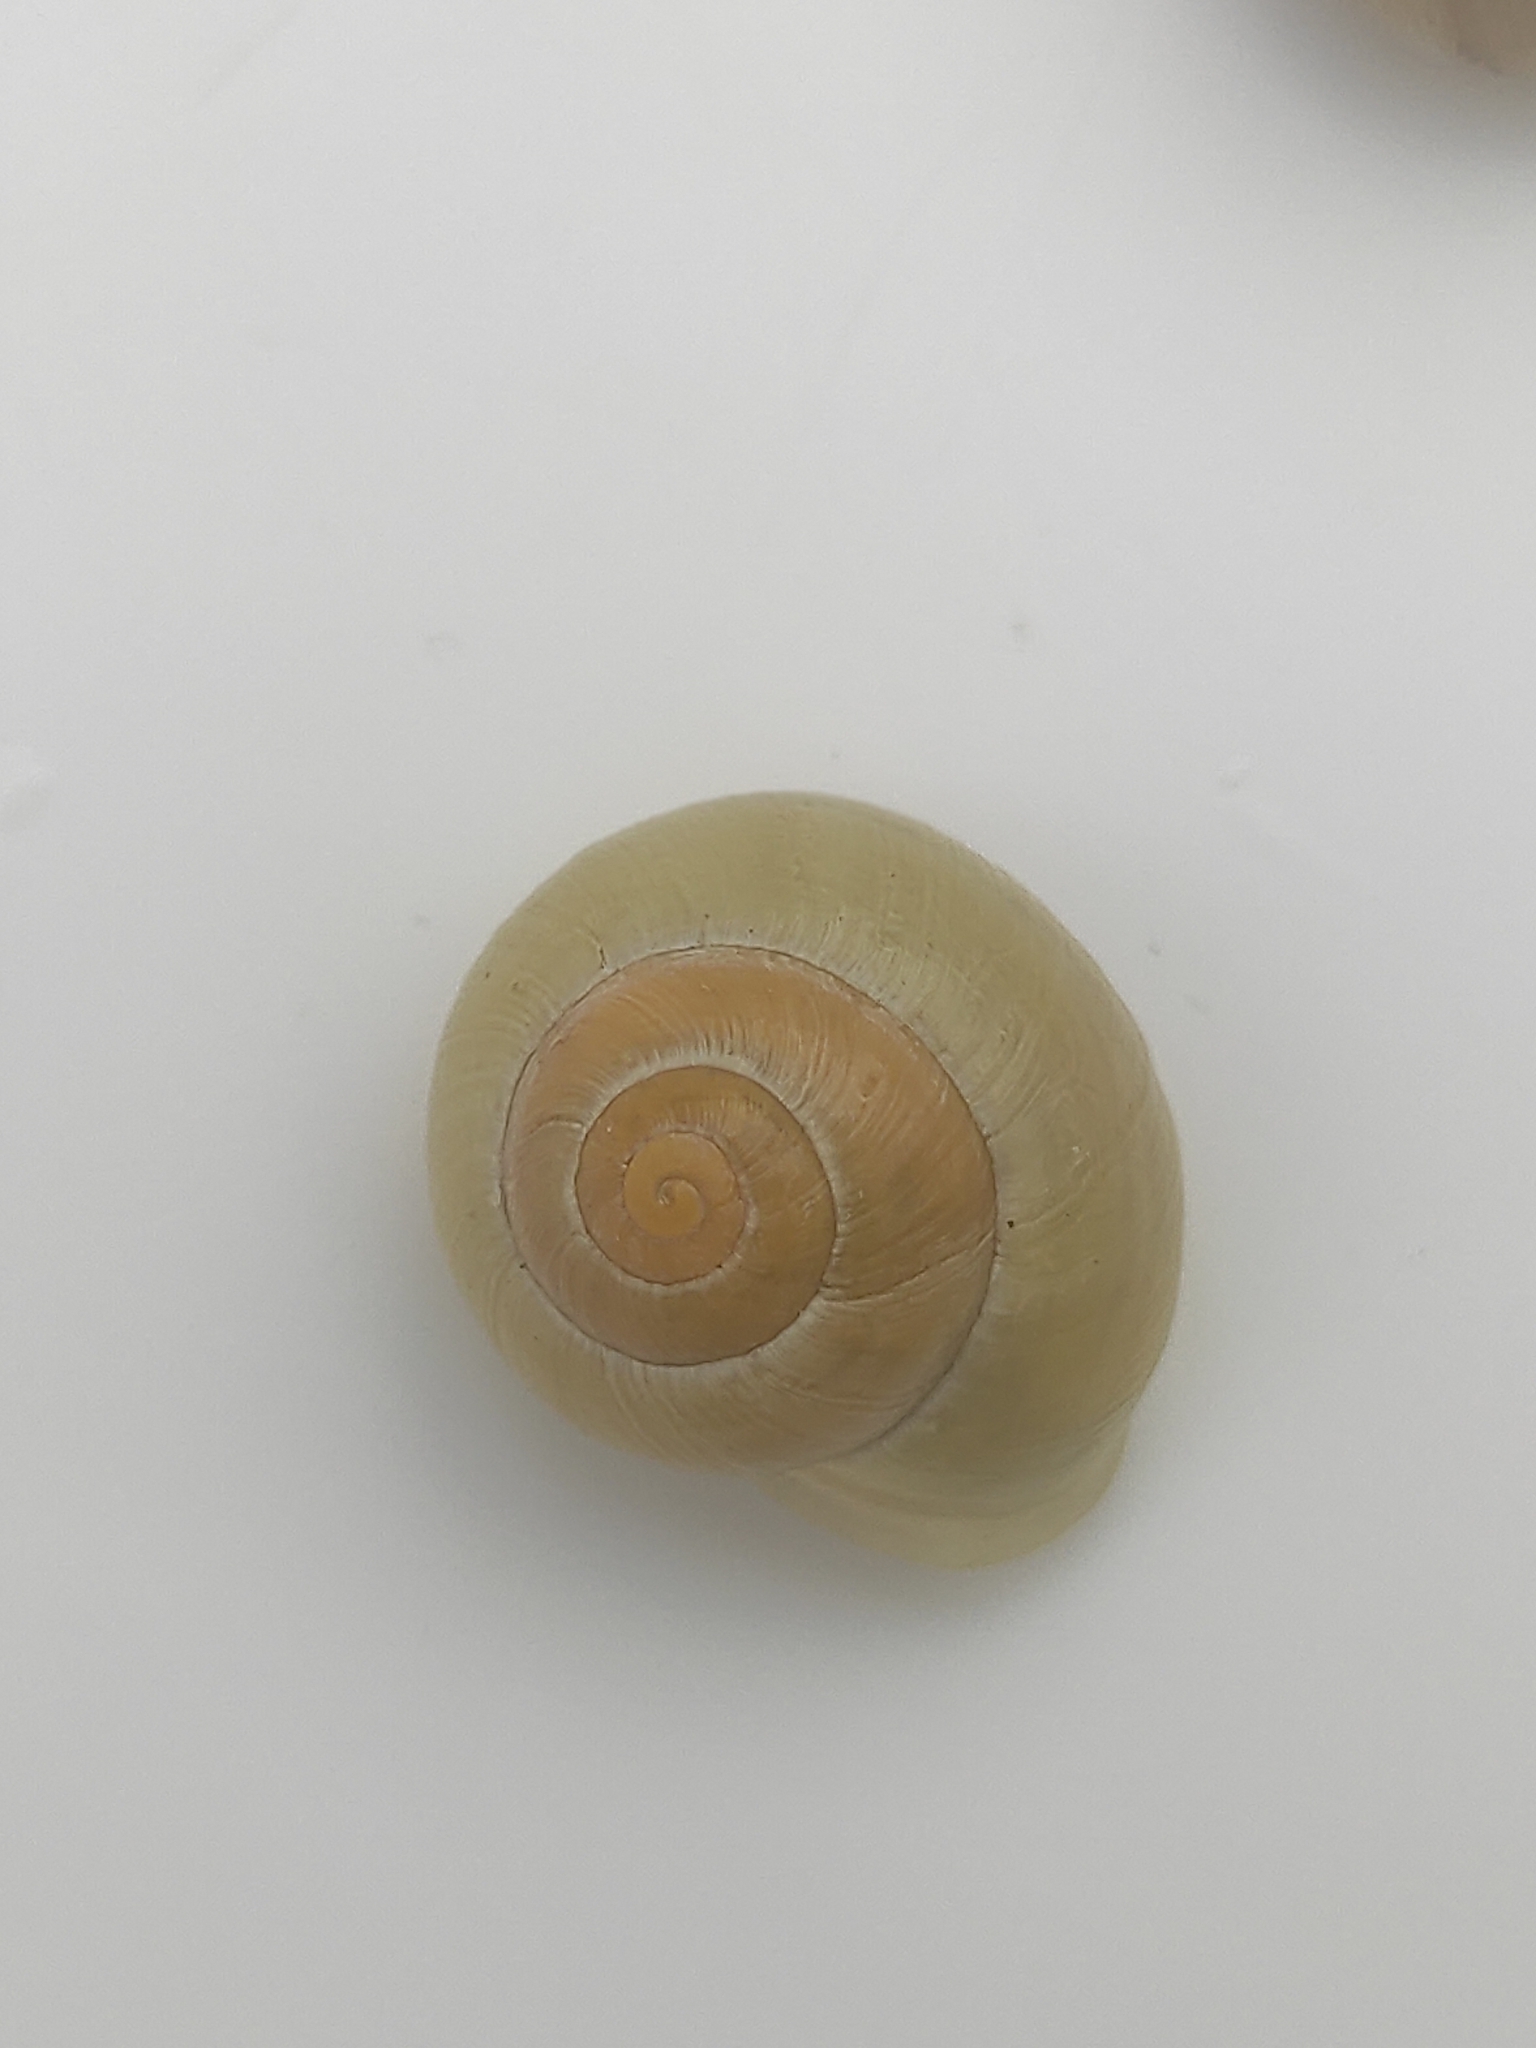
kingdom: Animalia
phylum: Mollusca
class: Gastropoda
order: Stylommatophora
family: Helicidae
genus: Cepaea
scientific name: Cepaea hortensis
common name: White-lip gardensnail
